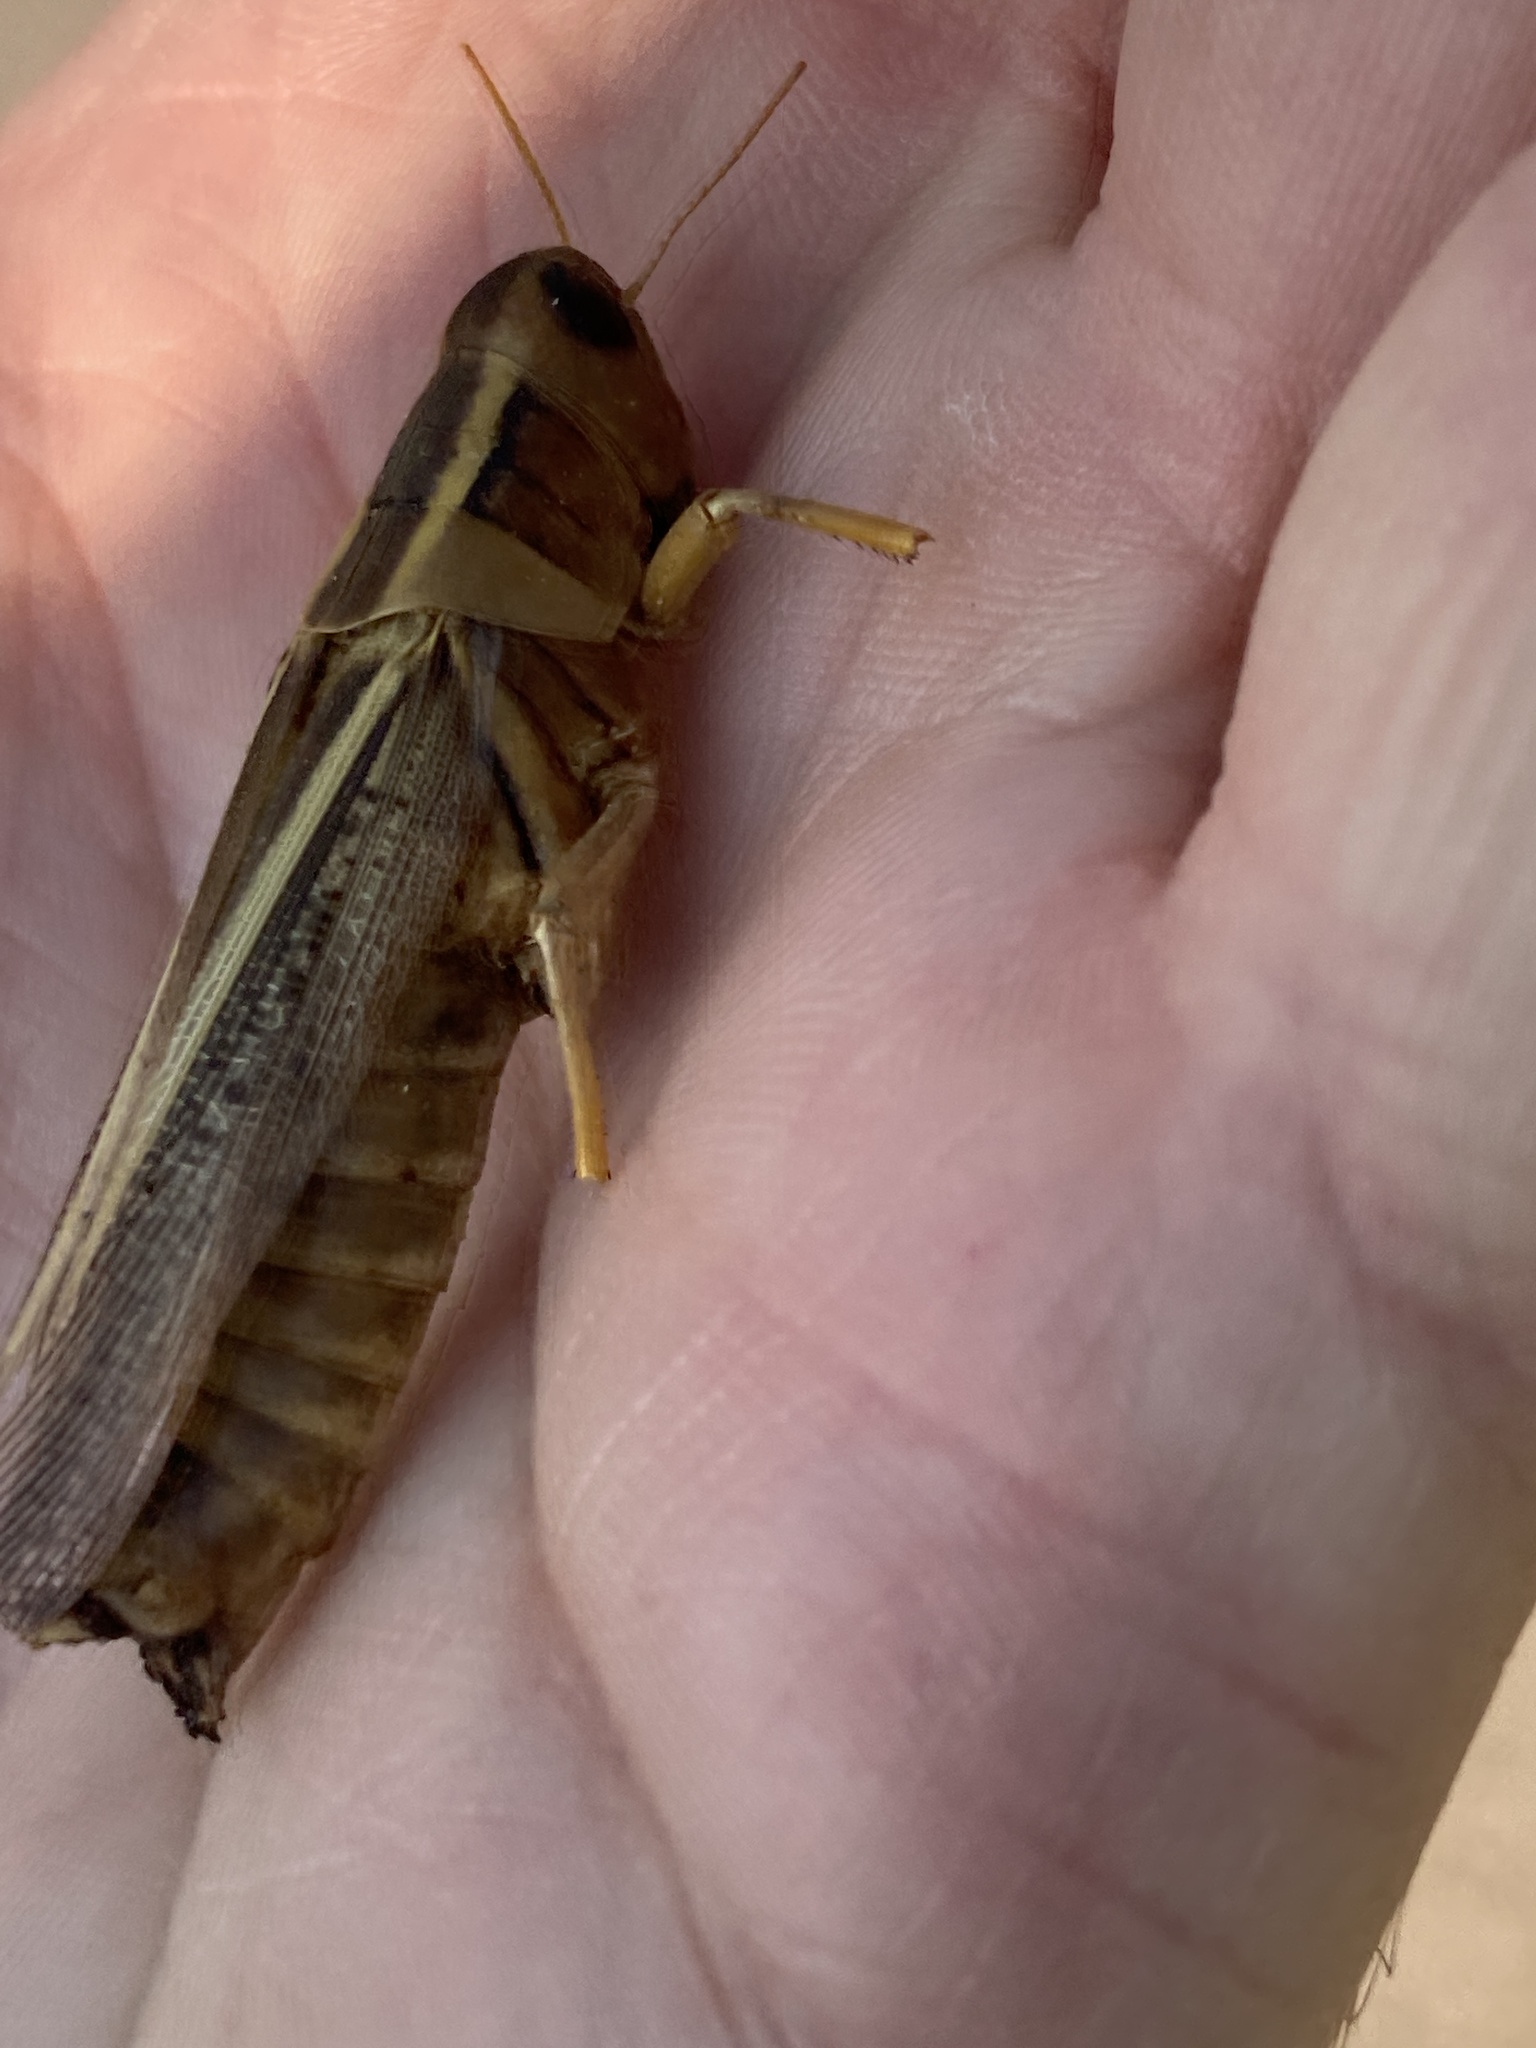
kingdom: Animalia
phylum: Arthropoda
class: Insecta
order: Orthoptera
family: Acrididae
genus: Melanoplus
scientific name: Melanoplus bivittatus
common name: Two-striped grasshopper
